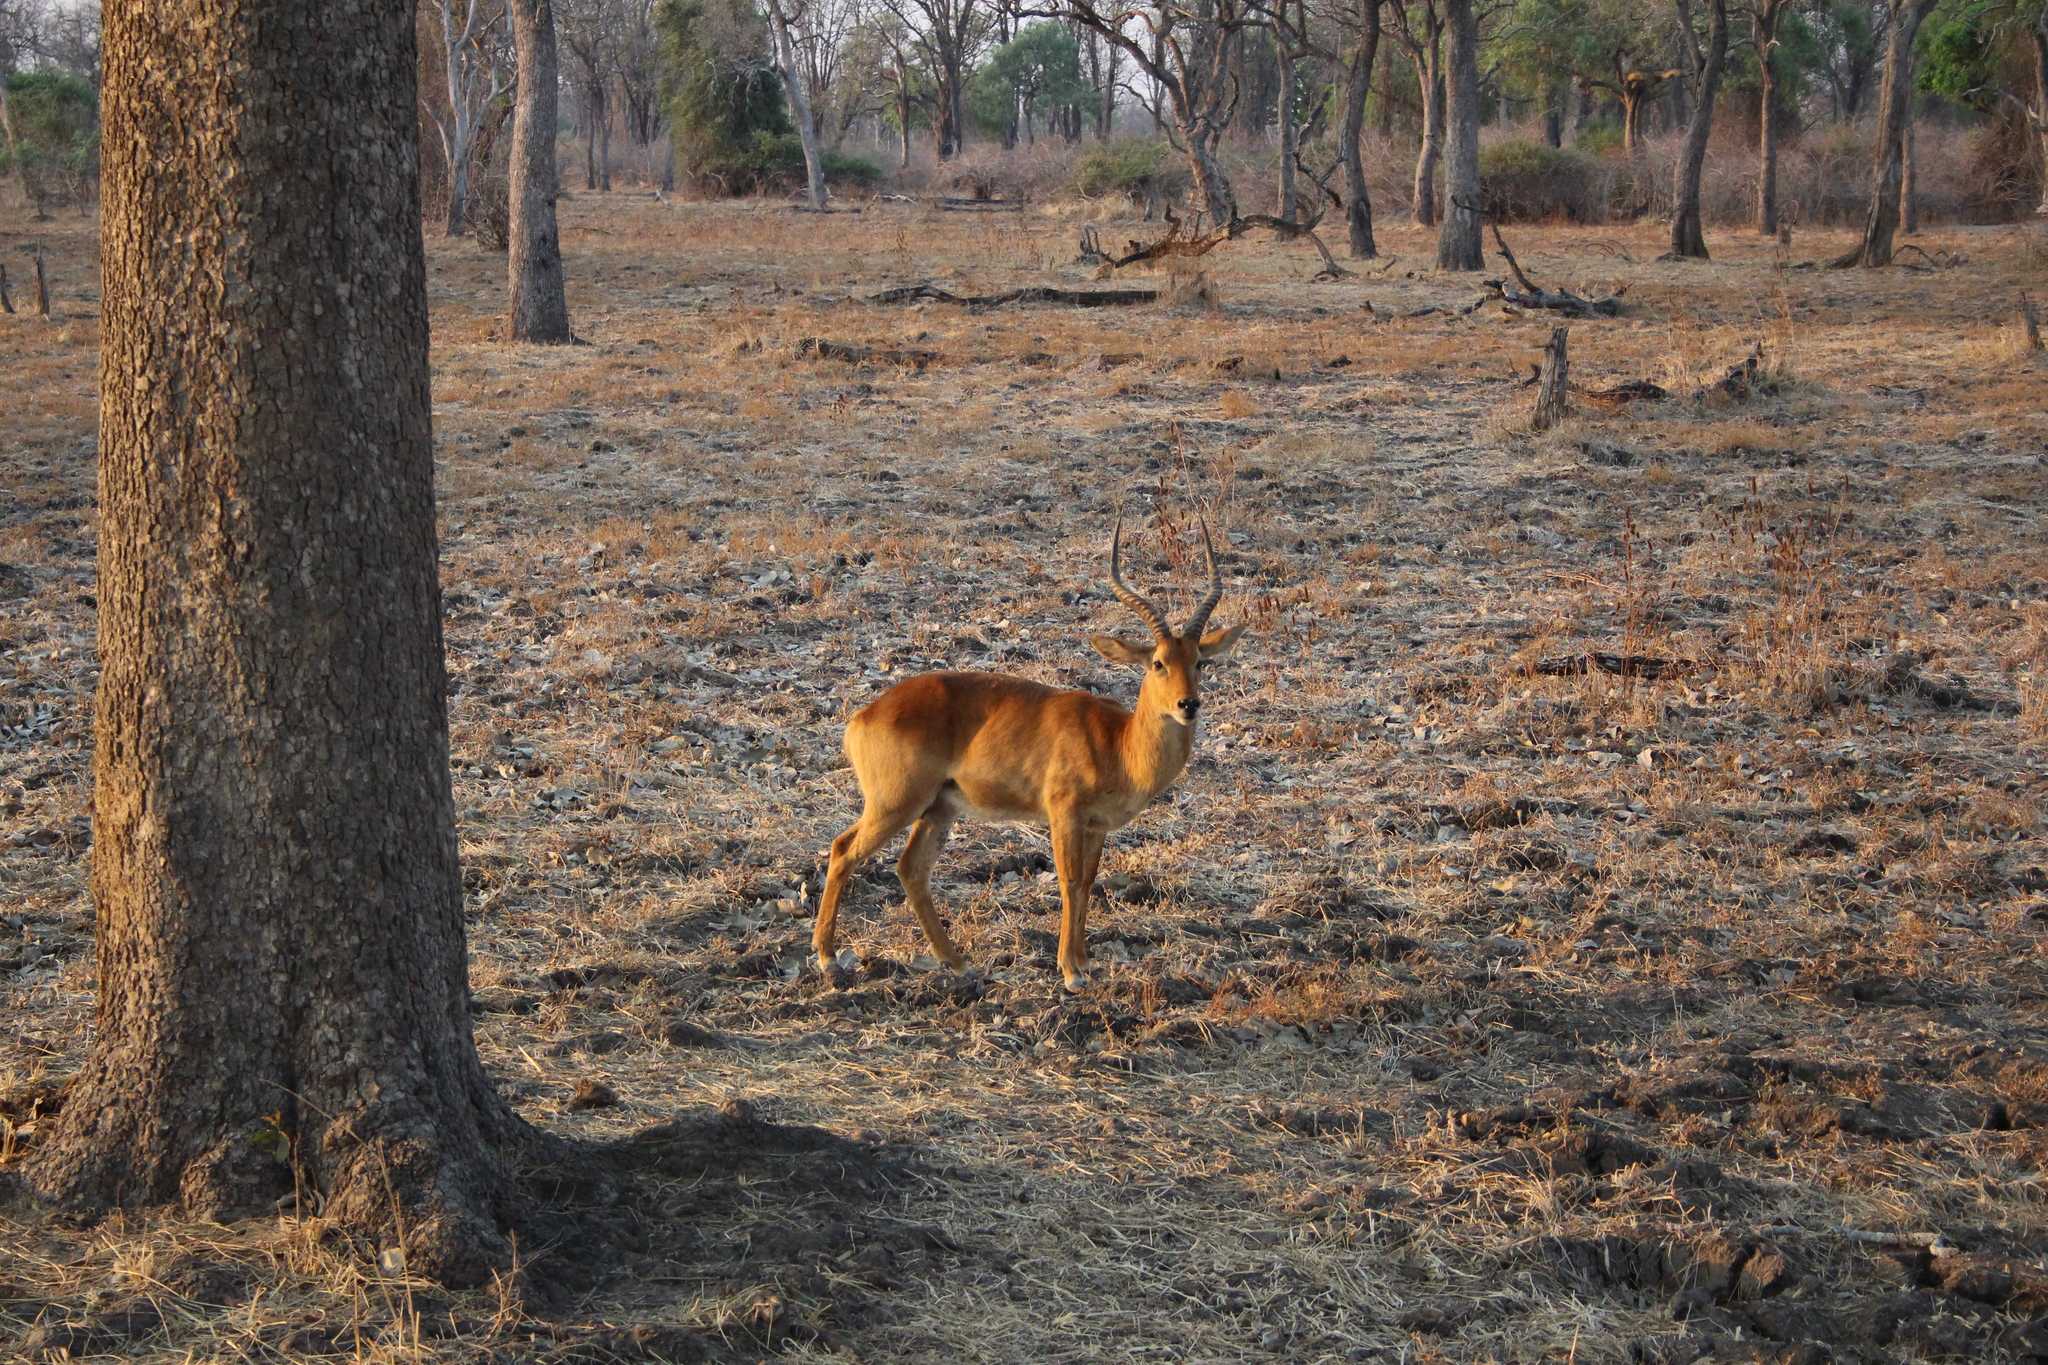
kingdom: Animalia
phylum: Chordata
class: Mammalia
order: Artiodactyla
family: Bovidae
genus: Kobus
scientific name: Kobus vardonii
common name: Puku
